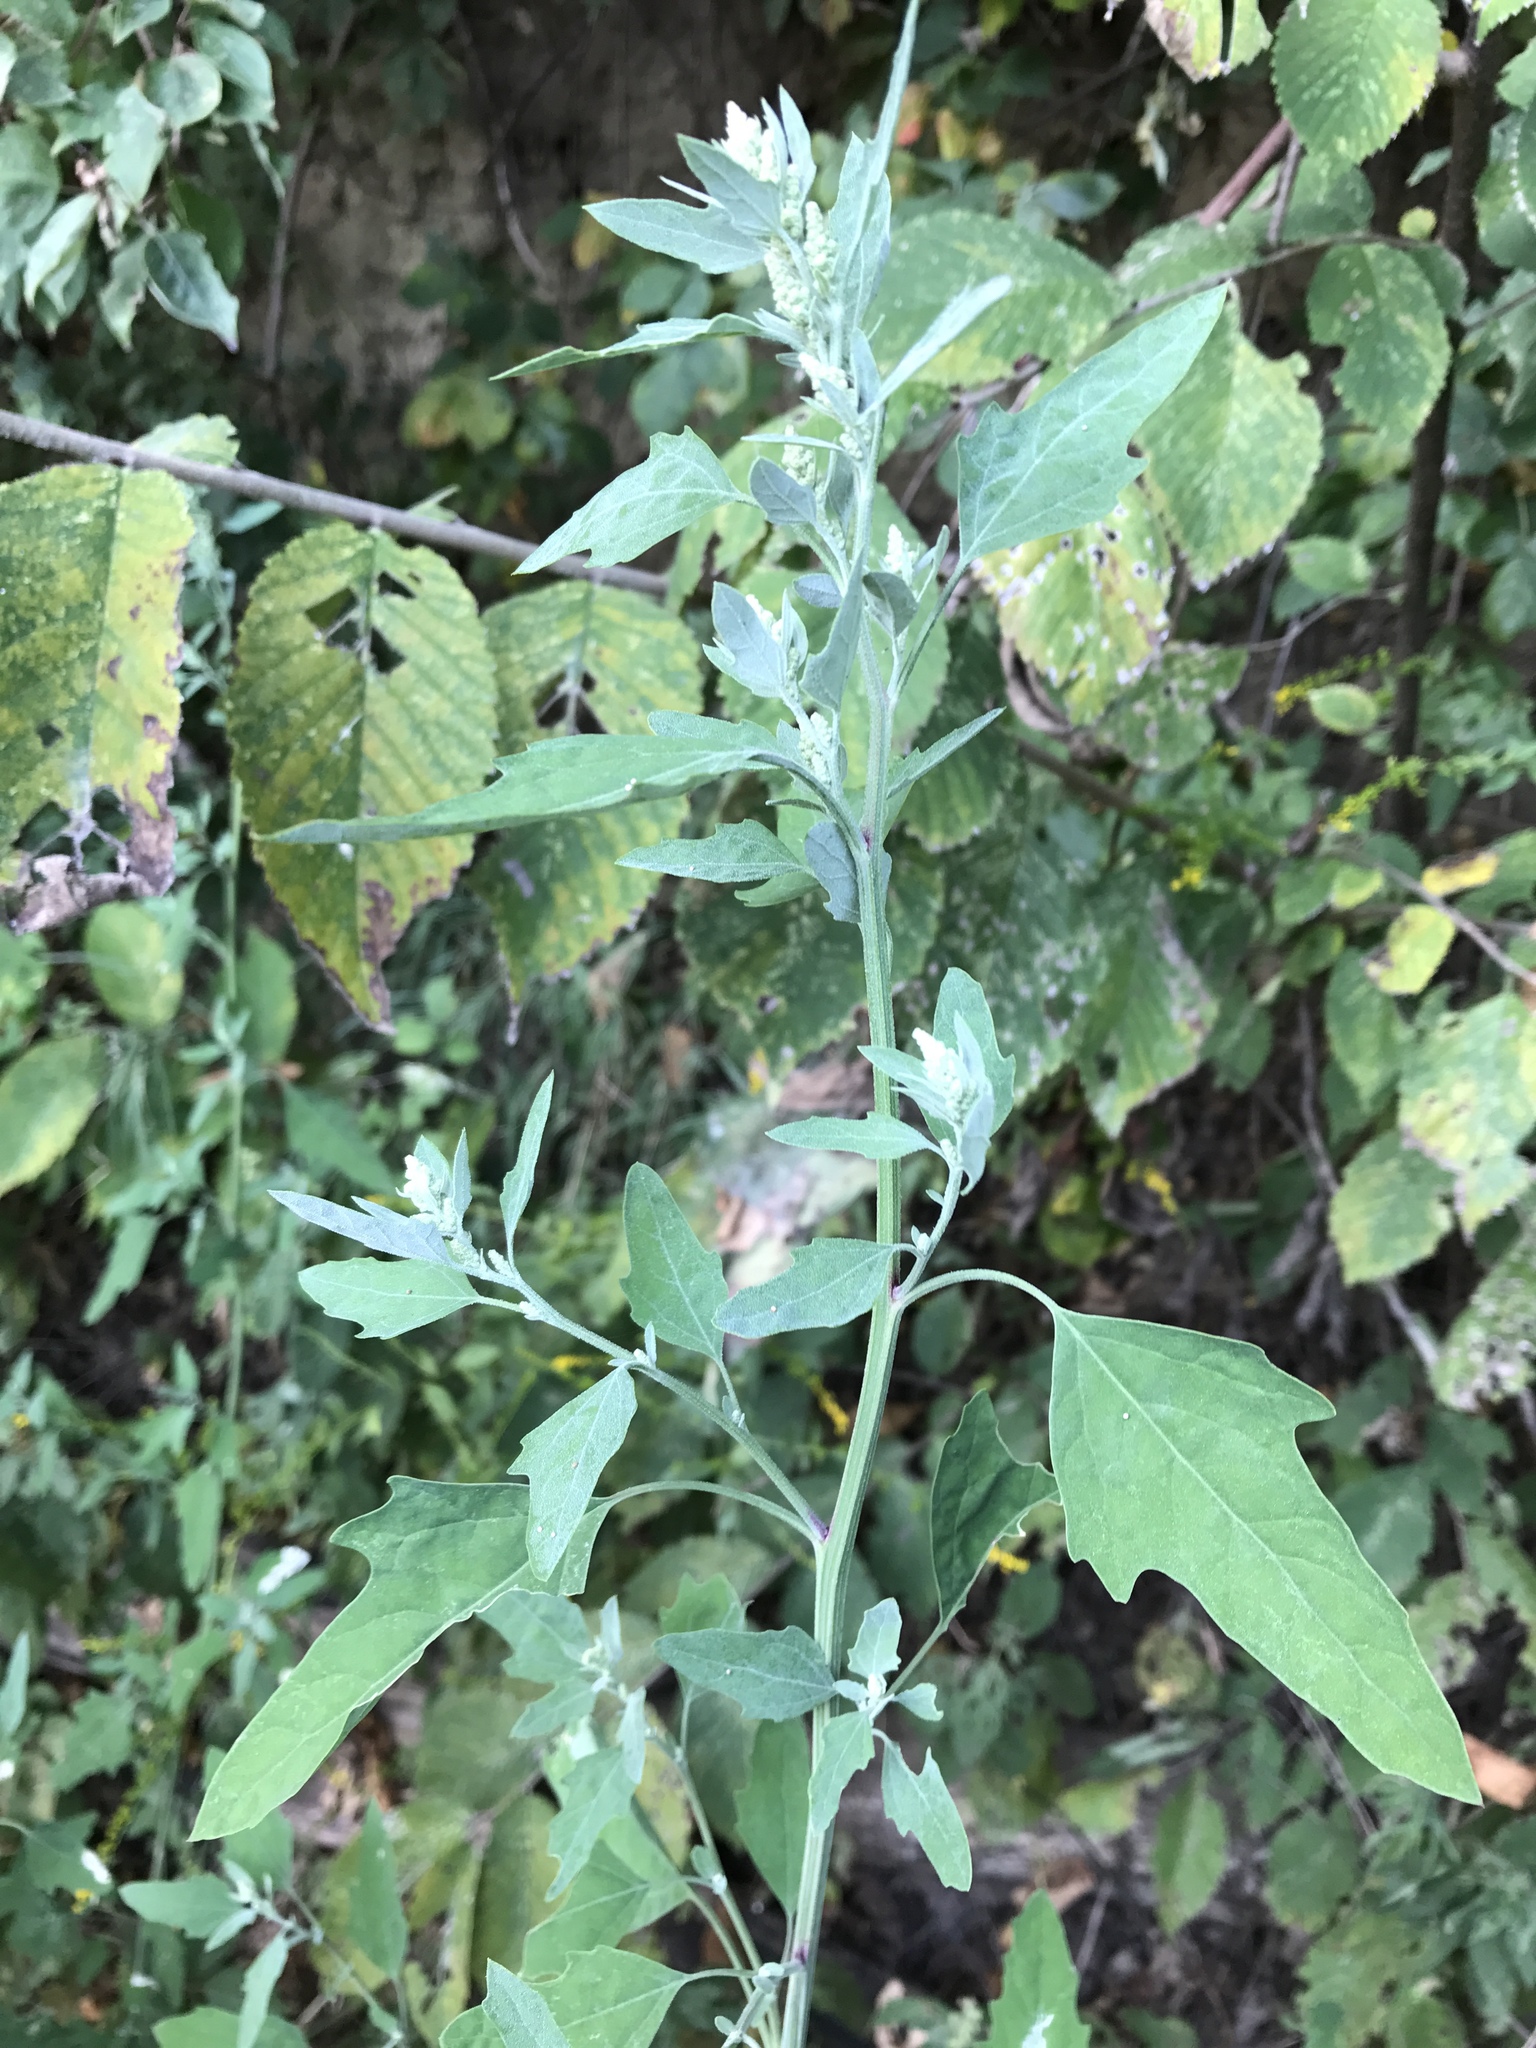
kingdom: Plantae
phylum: Tracheophyta
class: Magnoliopsida
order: Caryophyllales
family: Amaranthaceae
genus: Chenopodium
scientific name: Chenopodium album
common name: Fat-hen
